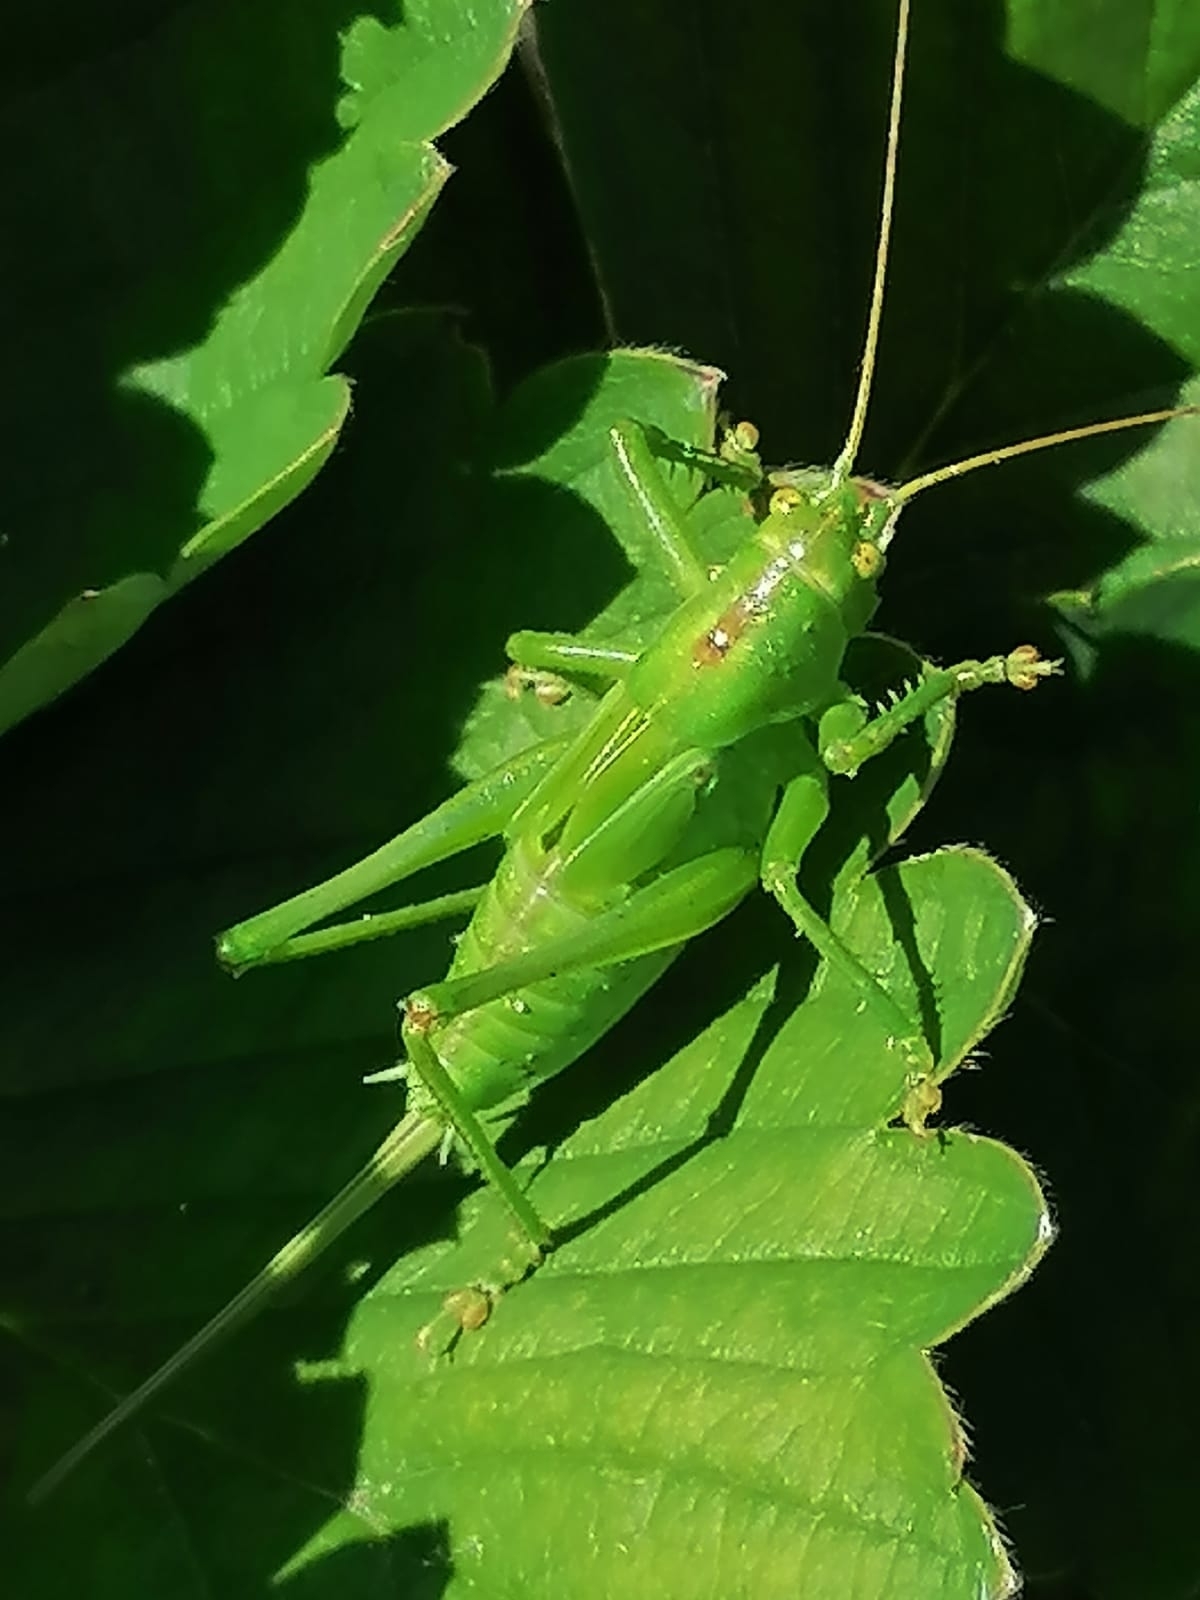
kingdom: Animalia
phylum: Arthropoda
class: Insecta
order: Orthoptera
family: Tettigoniidae
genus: Tettigonia
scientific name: Tettigonia cantans
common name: Upland green bush-cricket
